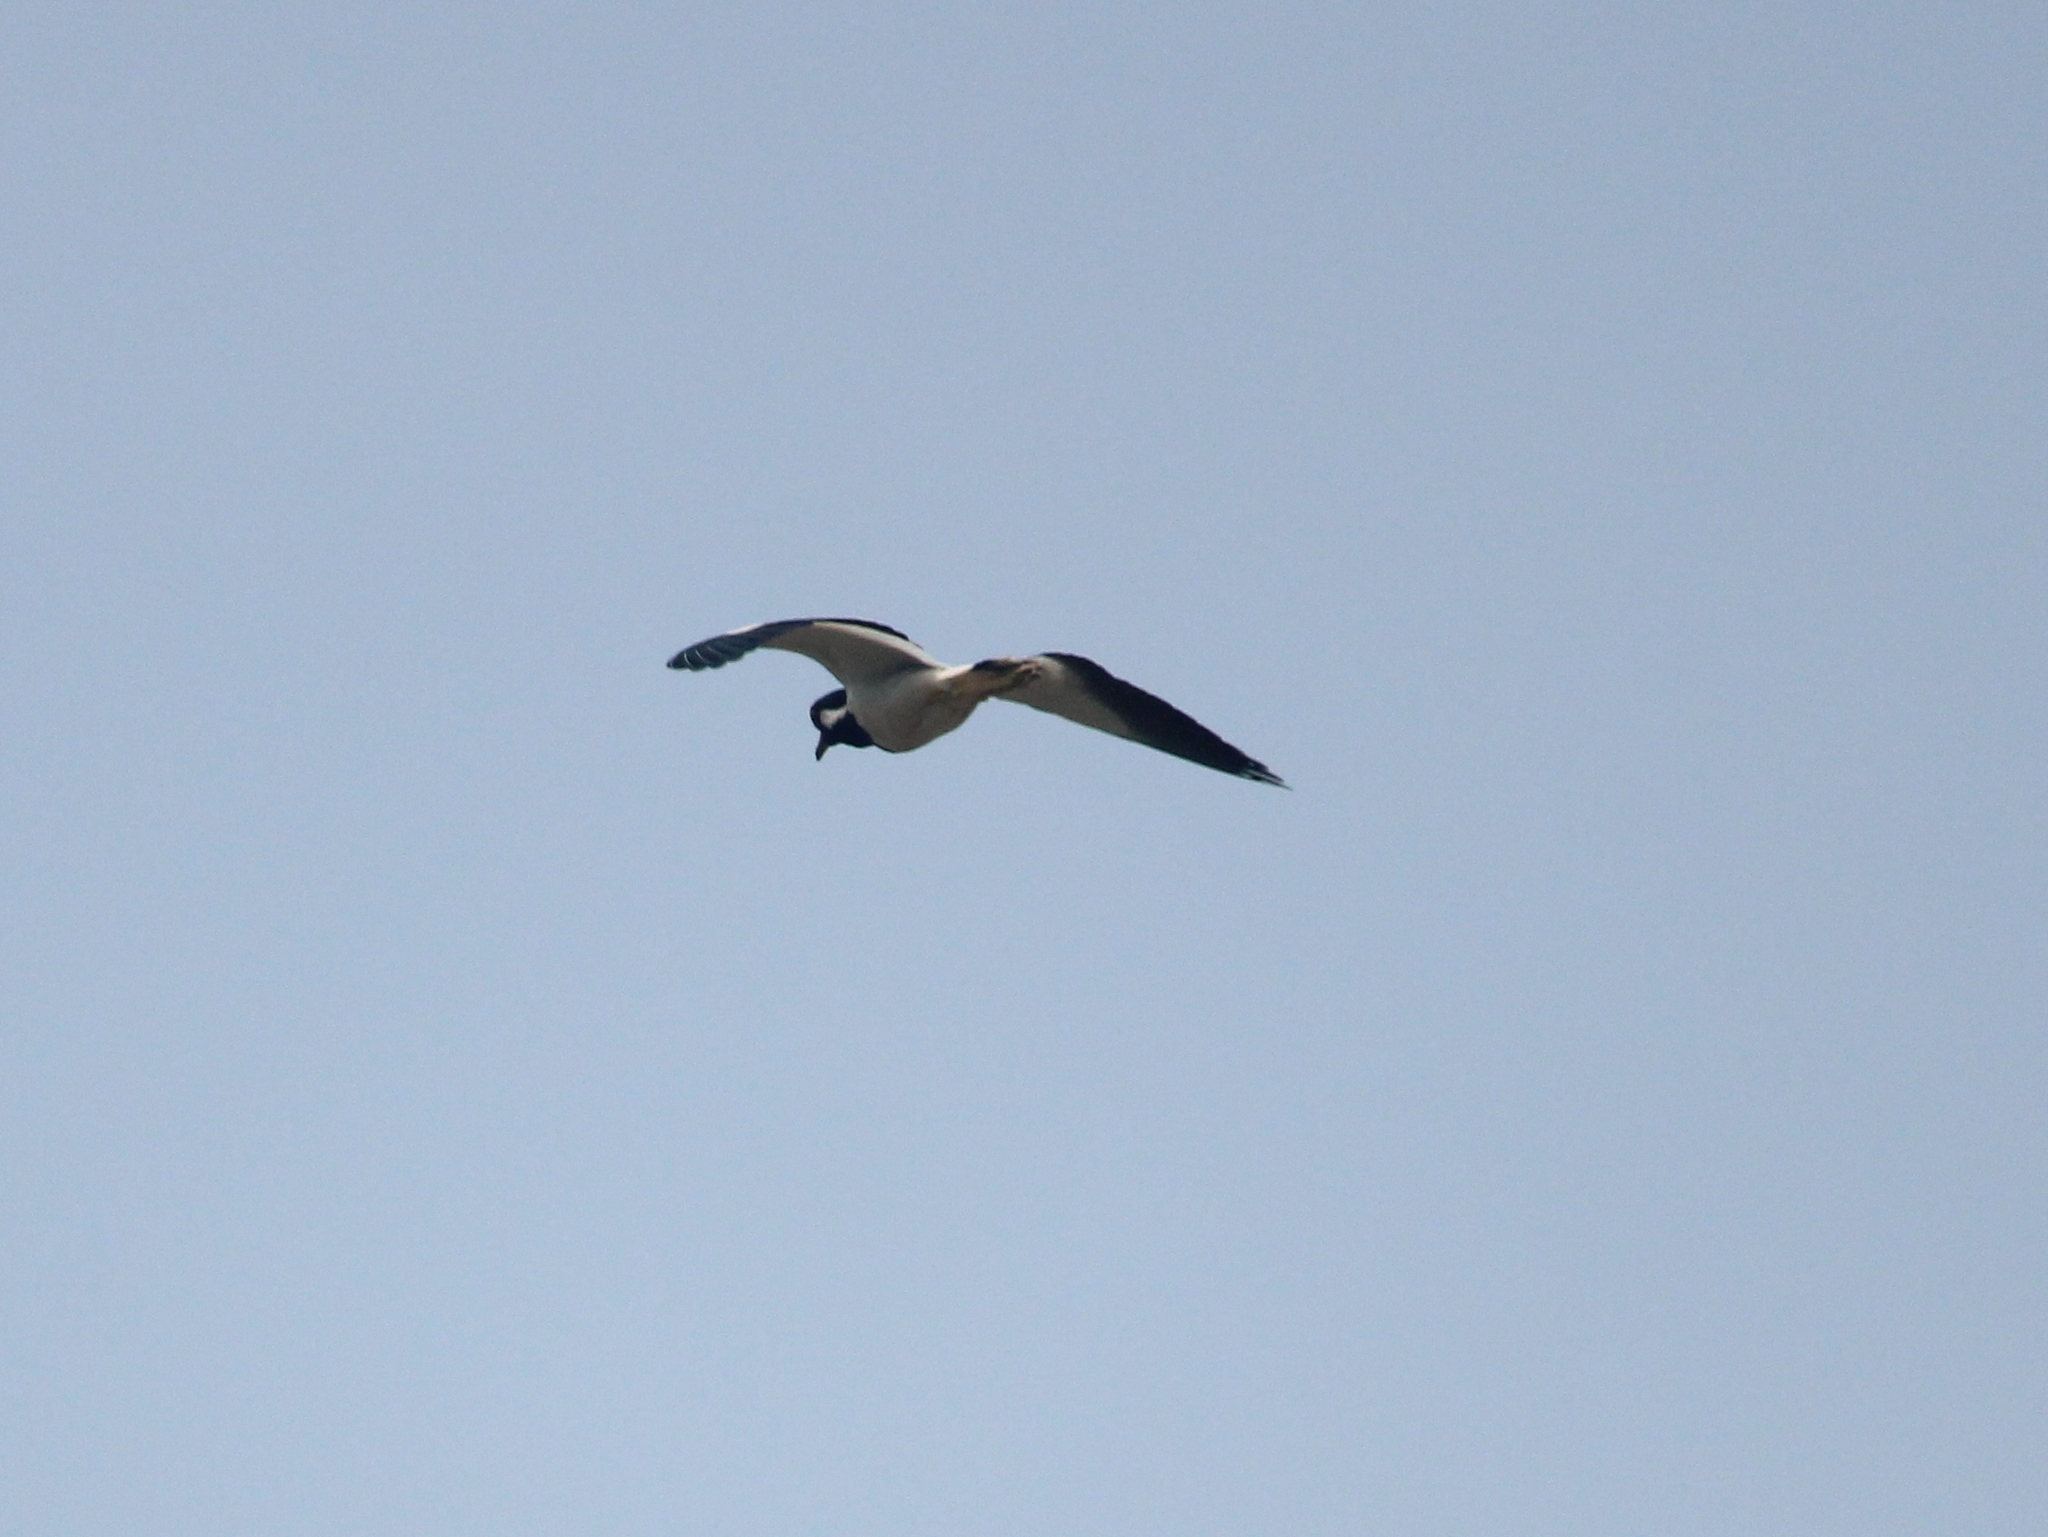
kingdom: Animalia
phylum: Chordata
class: Aves
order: Charadriiformes
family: Charadriidae
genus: Vanellus
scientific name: Vanellus indicus
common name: Red-wattled lapwing
